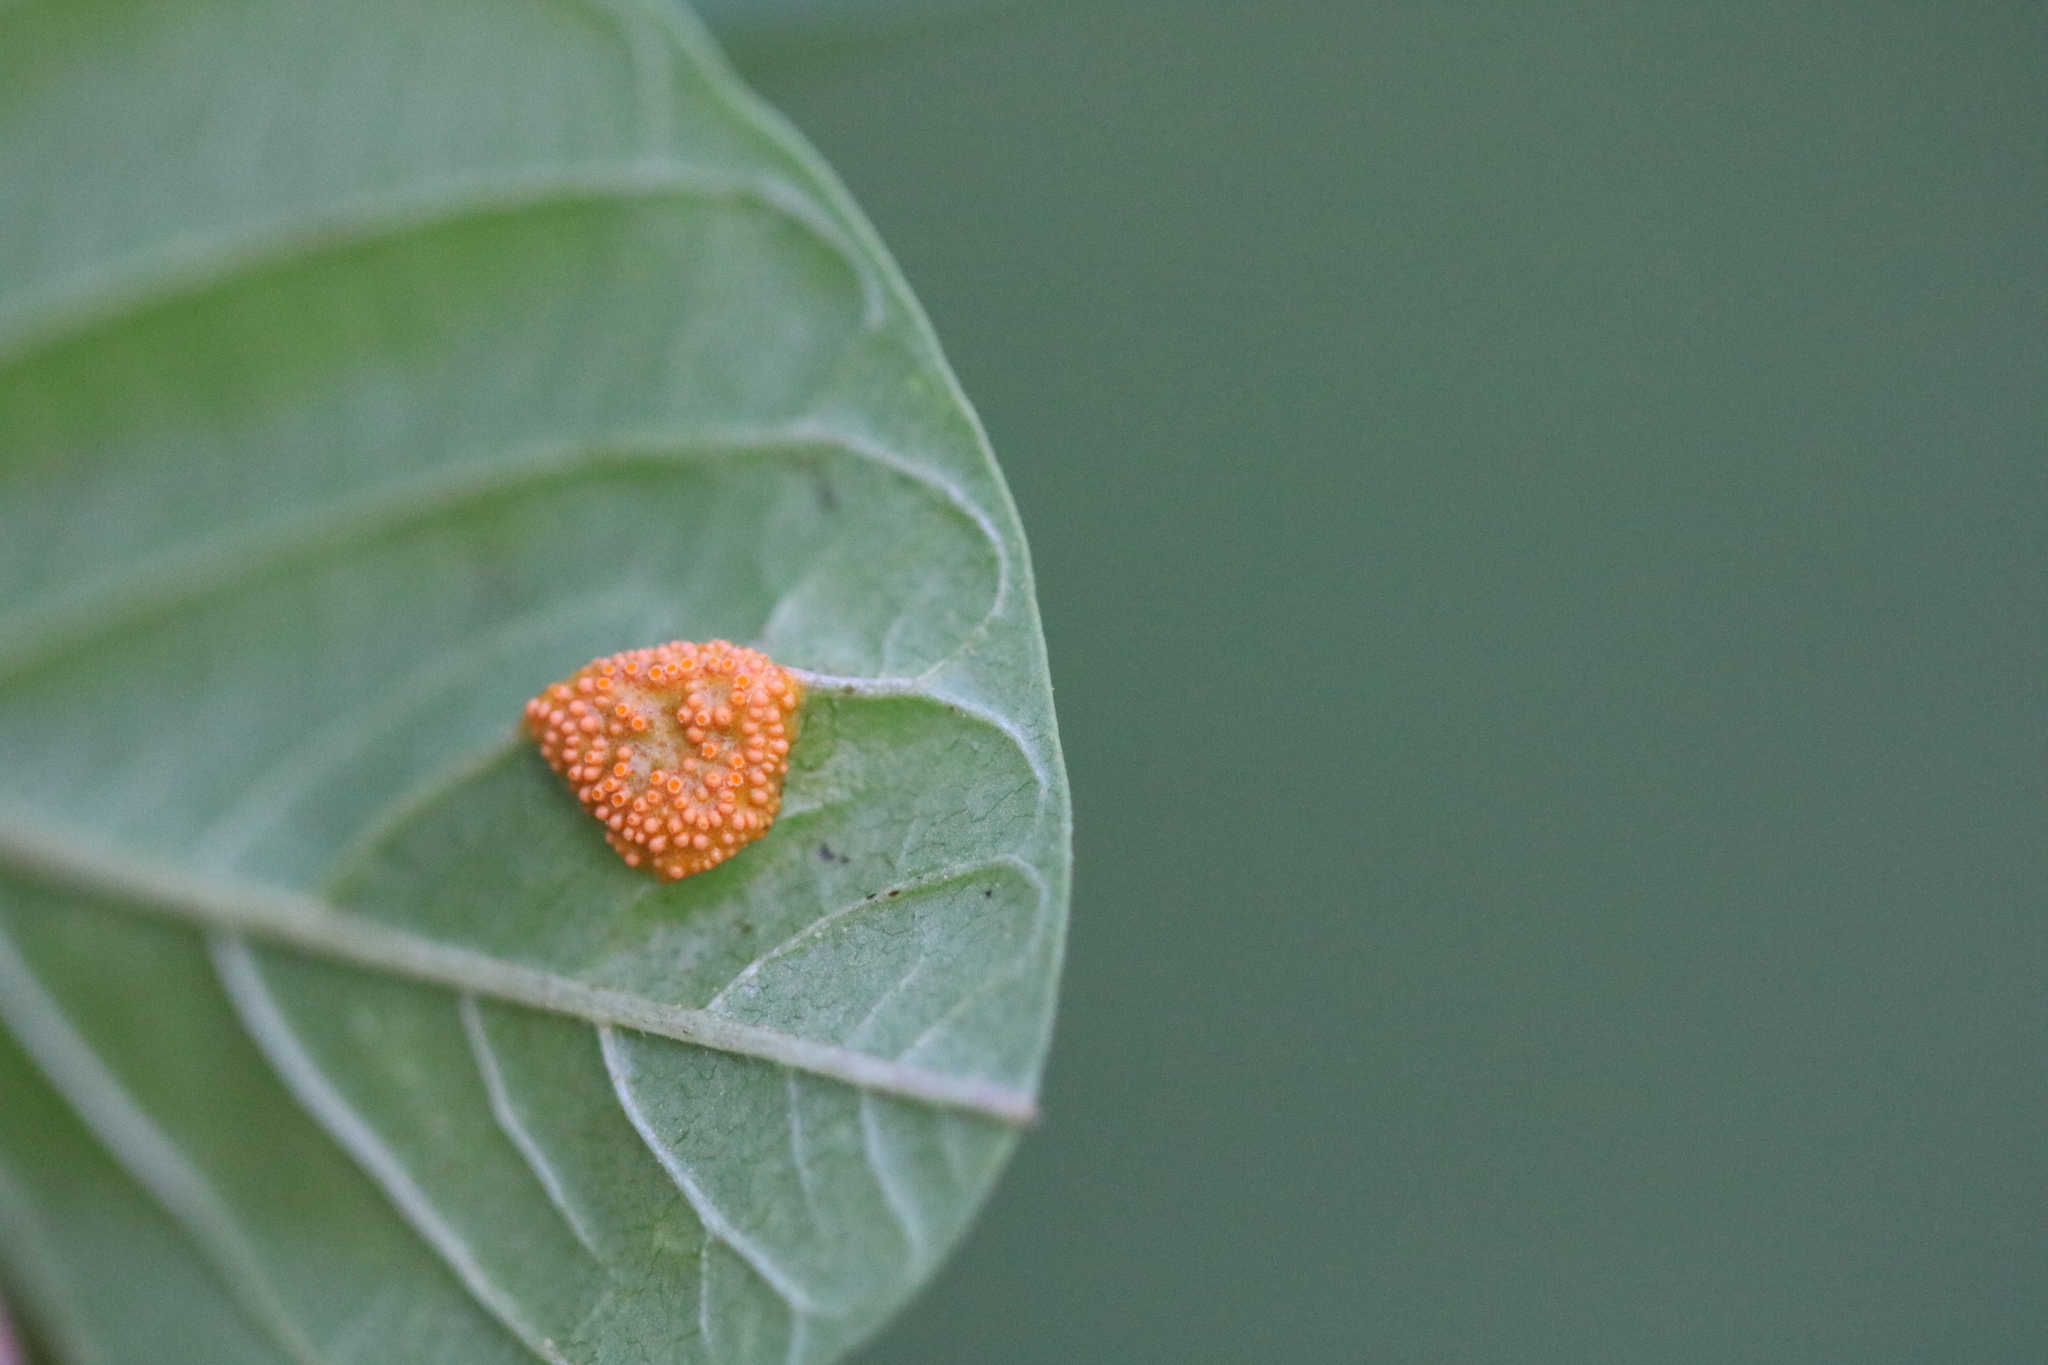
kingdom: Fungi
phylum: Basidiomycota
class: Pucciniomycetes
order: Pucciniales
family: Pucciniaceae
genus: Puccinia
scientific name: Puccinia coronata
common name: Crown rust
